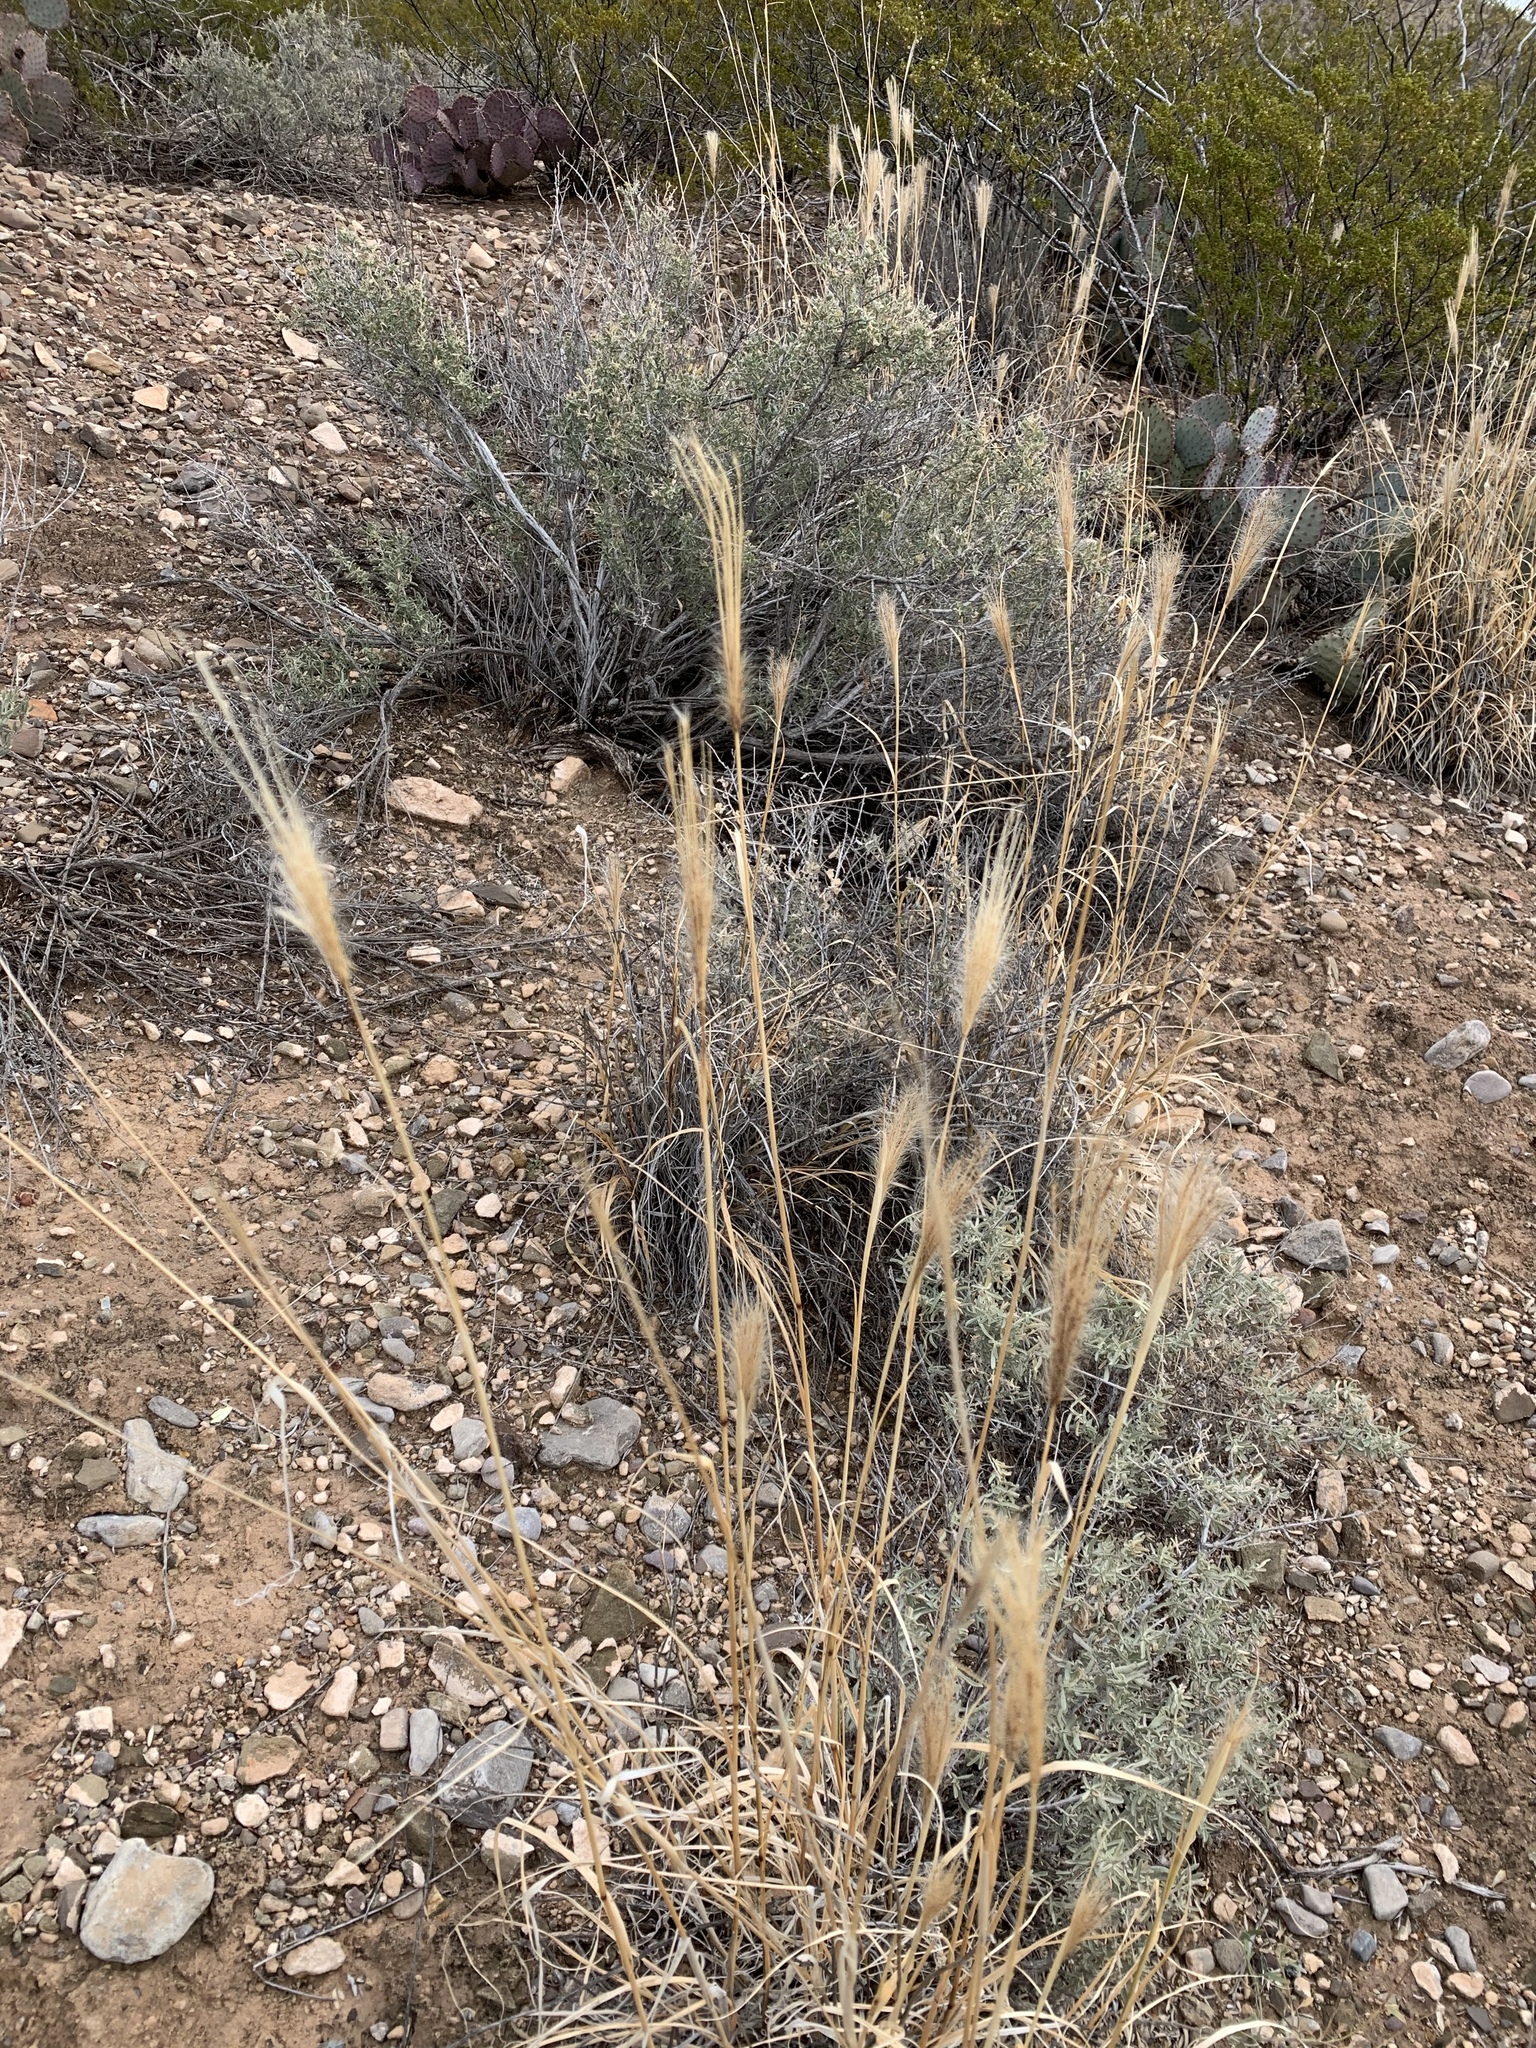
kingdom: Plantae
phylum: Tracheophyta
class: Liliopsida
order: Poales
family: Poaceae
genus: Chloris
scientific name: Chloris virgata
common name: Feathery rhodes-grass
